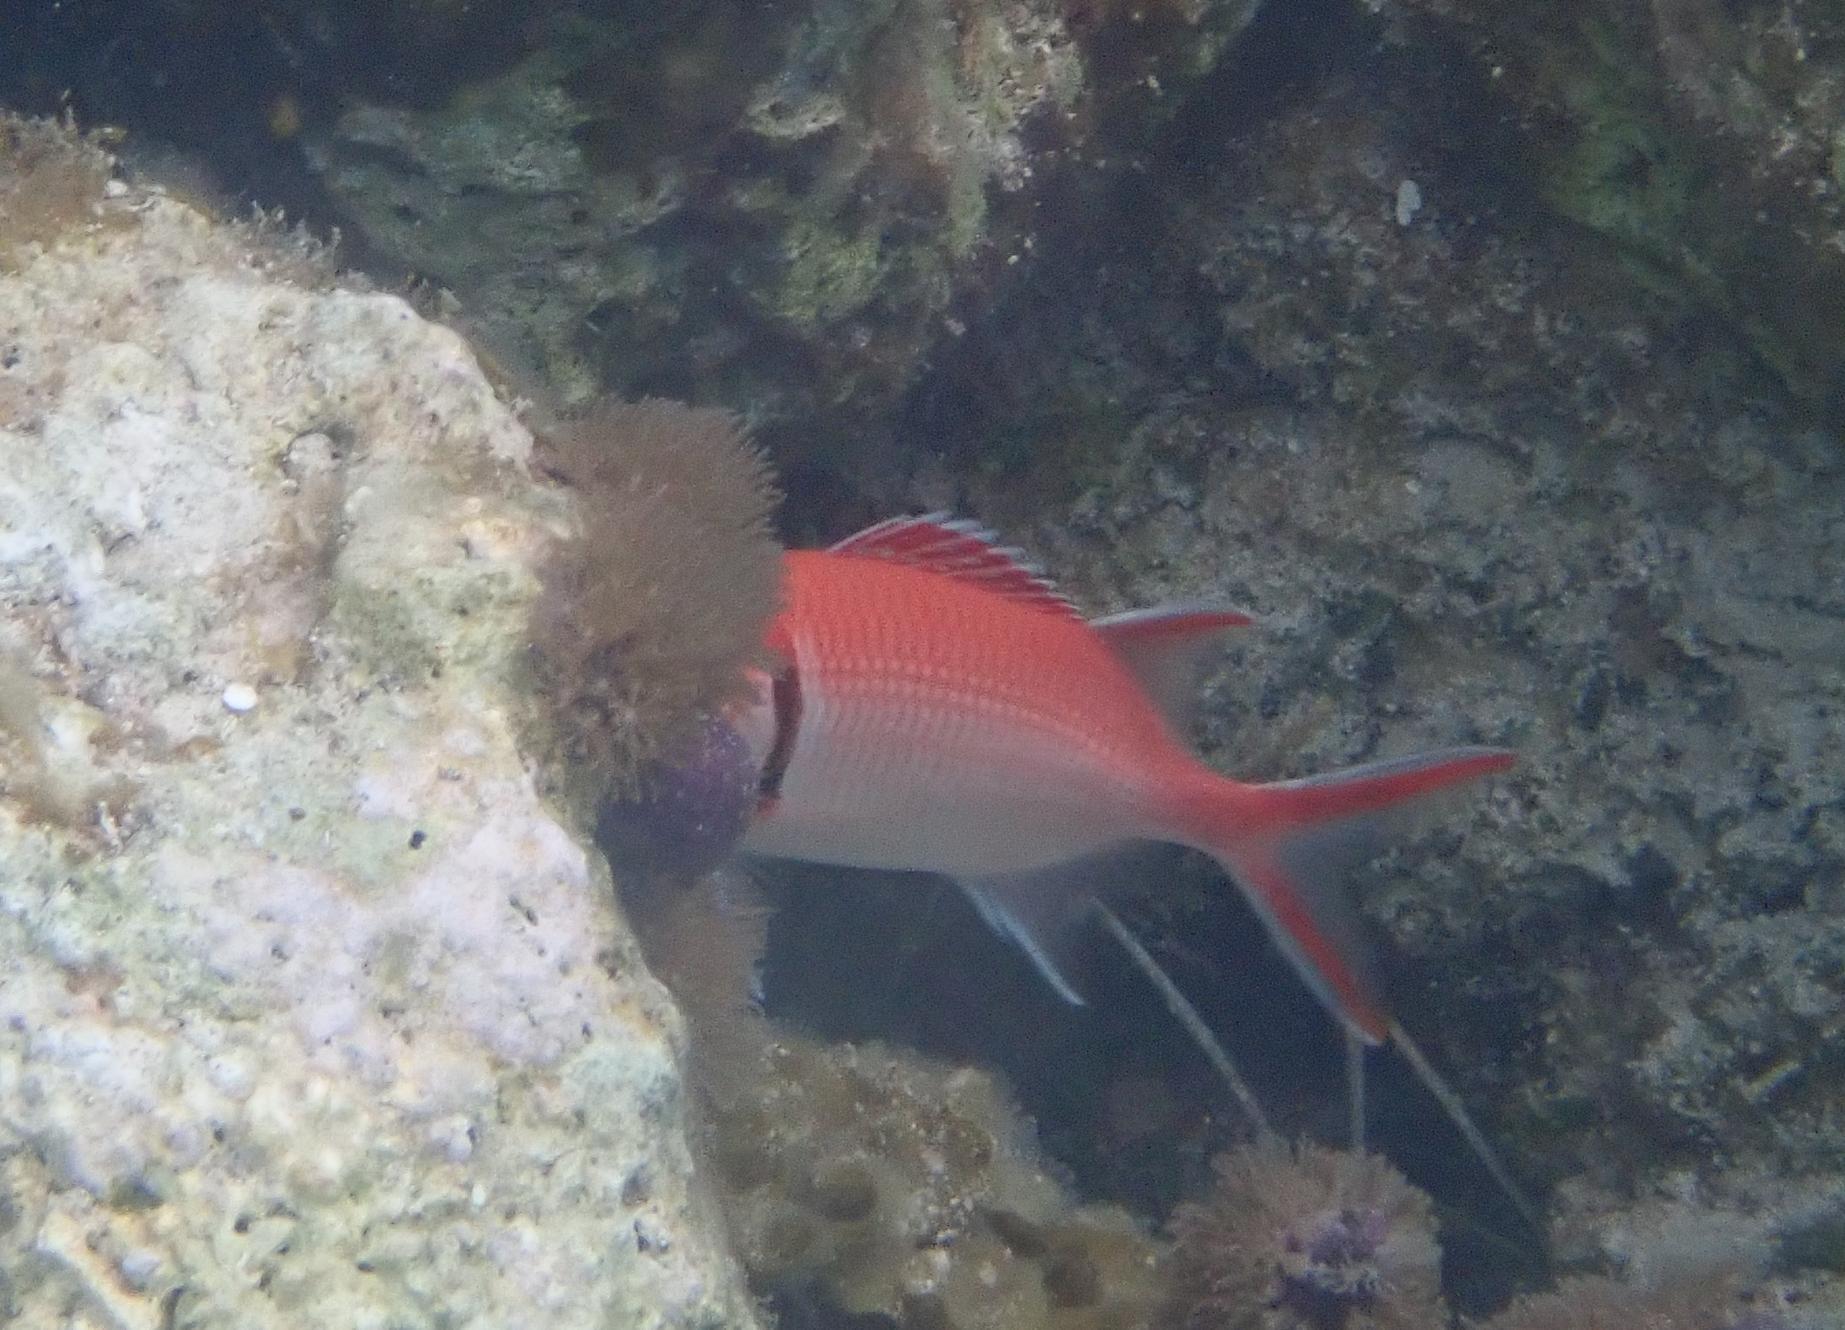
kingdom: Animalia
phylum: Chordata
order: Beryciformes
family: Holocentridae
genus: Myripristis
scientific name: Myripristis jacobus
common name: Blackbar soldierfish
